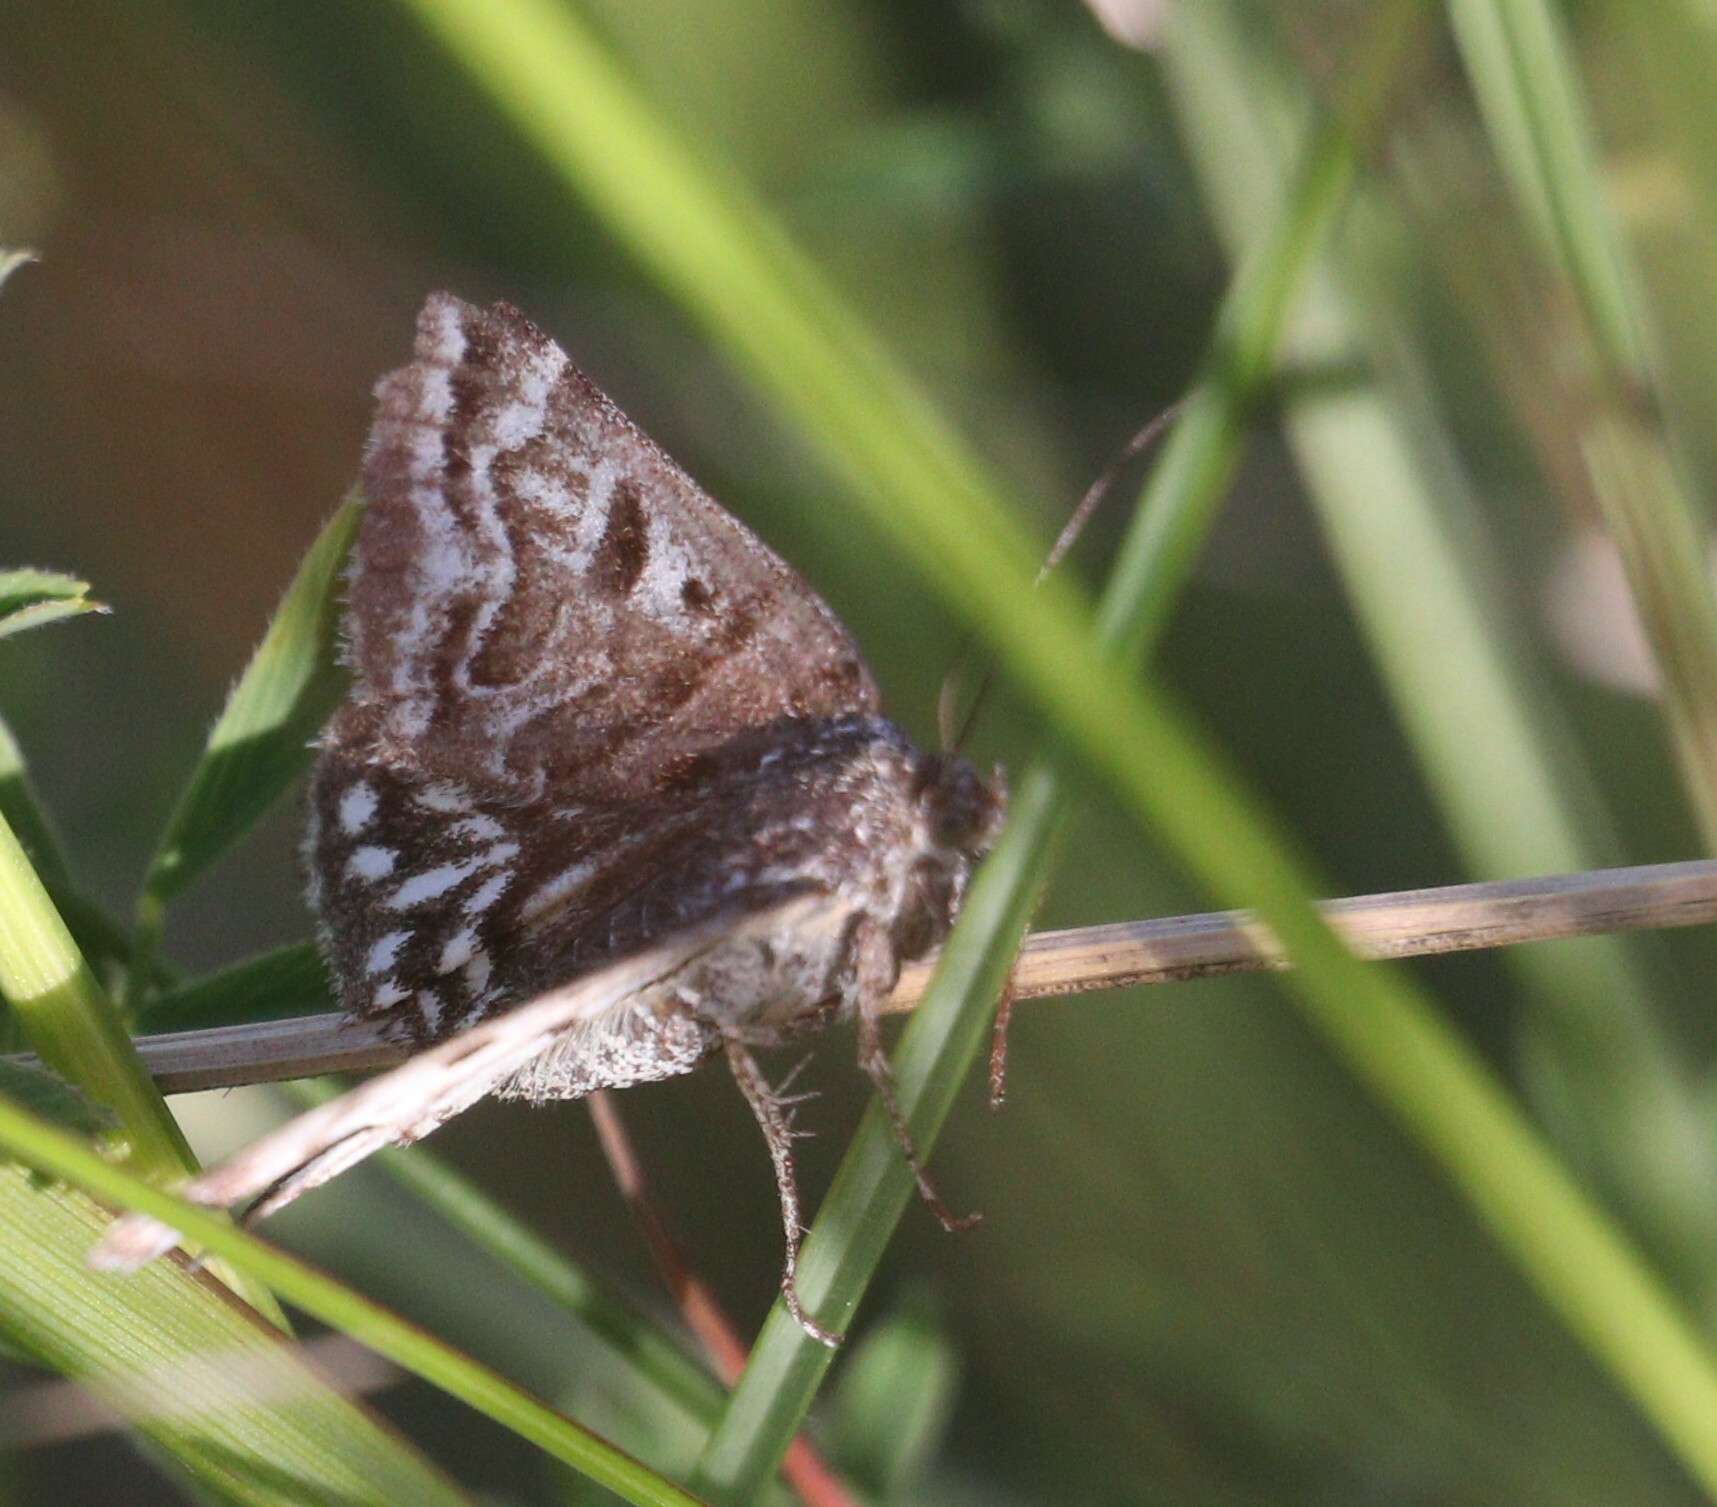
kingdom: Animalia
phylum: Arthropoda
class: Insecta
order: Lepidoptera
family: Erebidae
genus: Callistege
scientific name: Callistege mi
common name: Mother shipton
